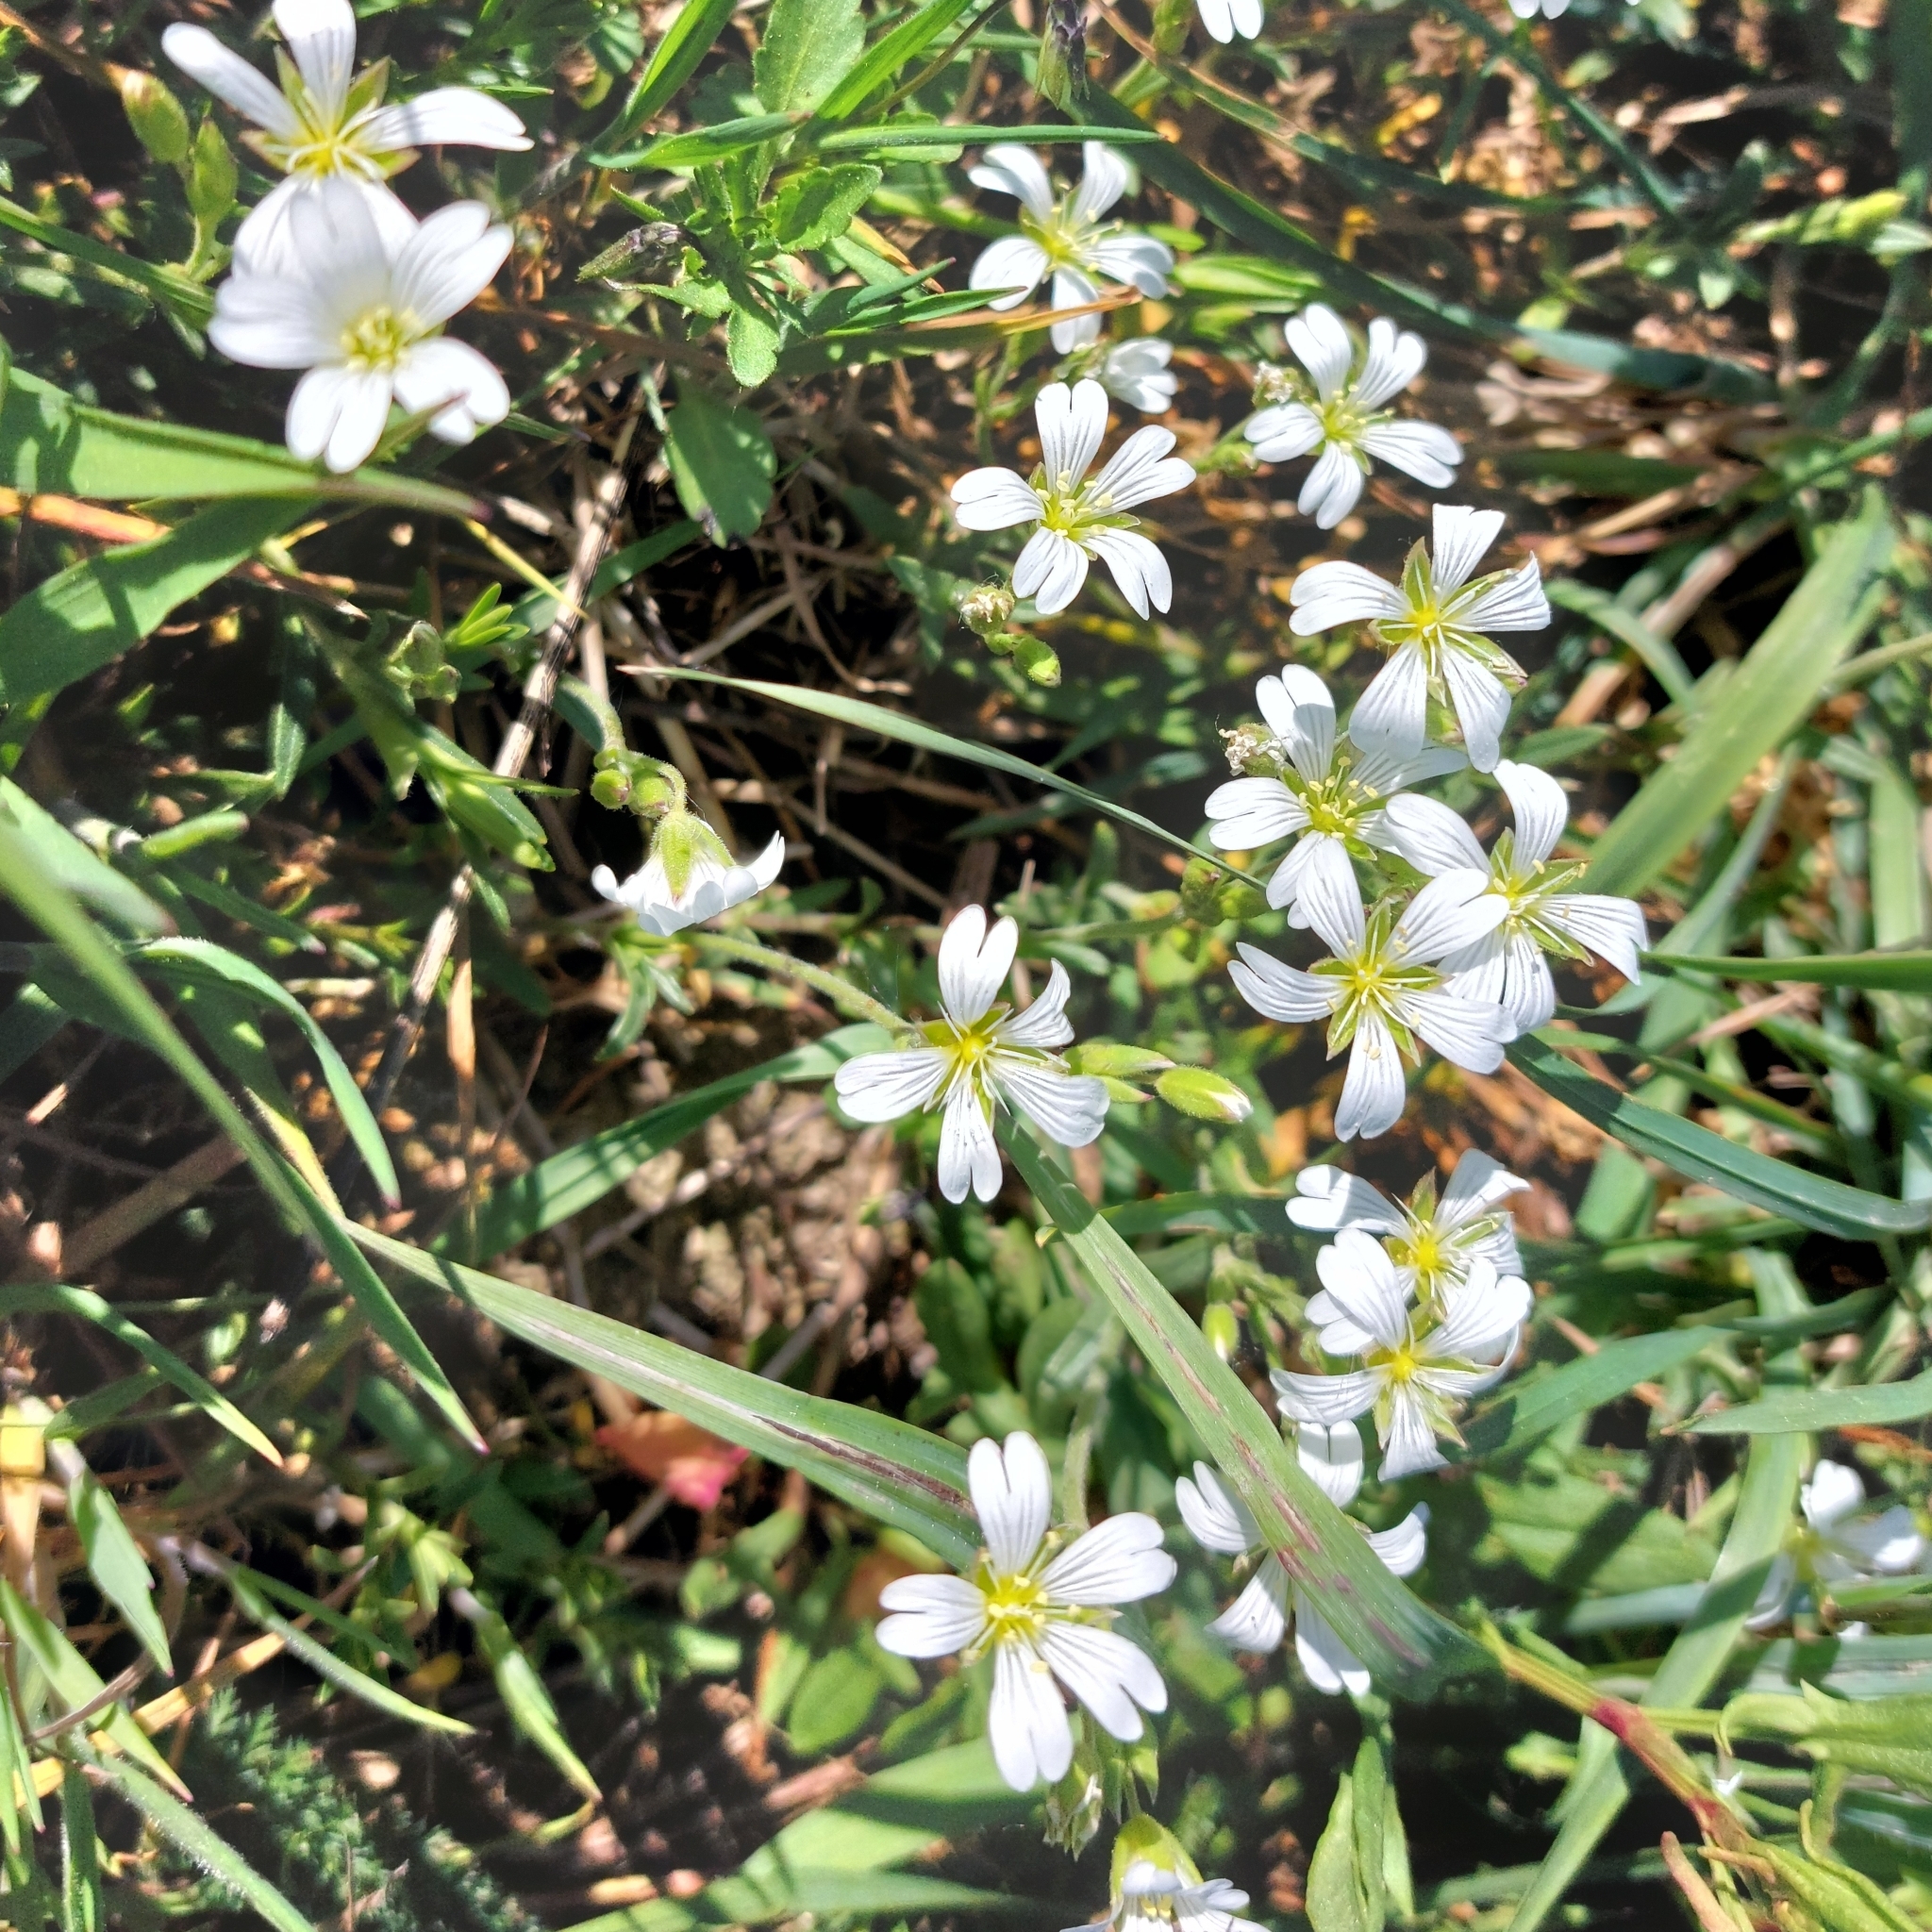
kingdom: Plantae
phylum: Tracheophyta
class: Magnoliopsida
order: Caryophyllales
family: Caryophyllaceae
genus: Cerastium
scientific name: Cerastium arvense
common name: Field mouse-ear
